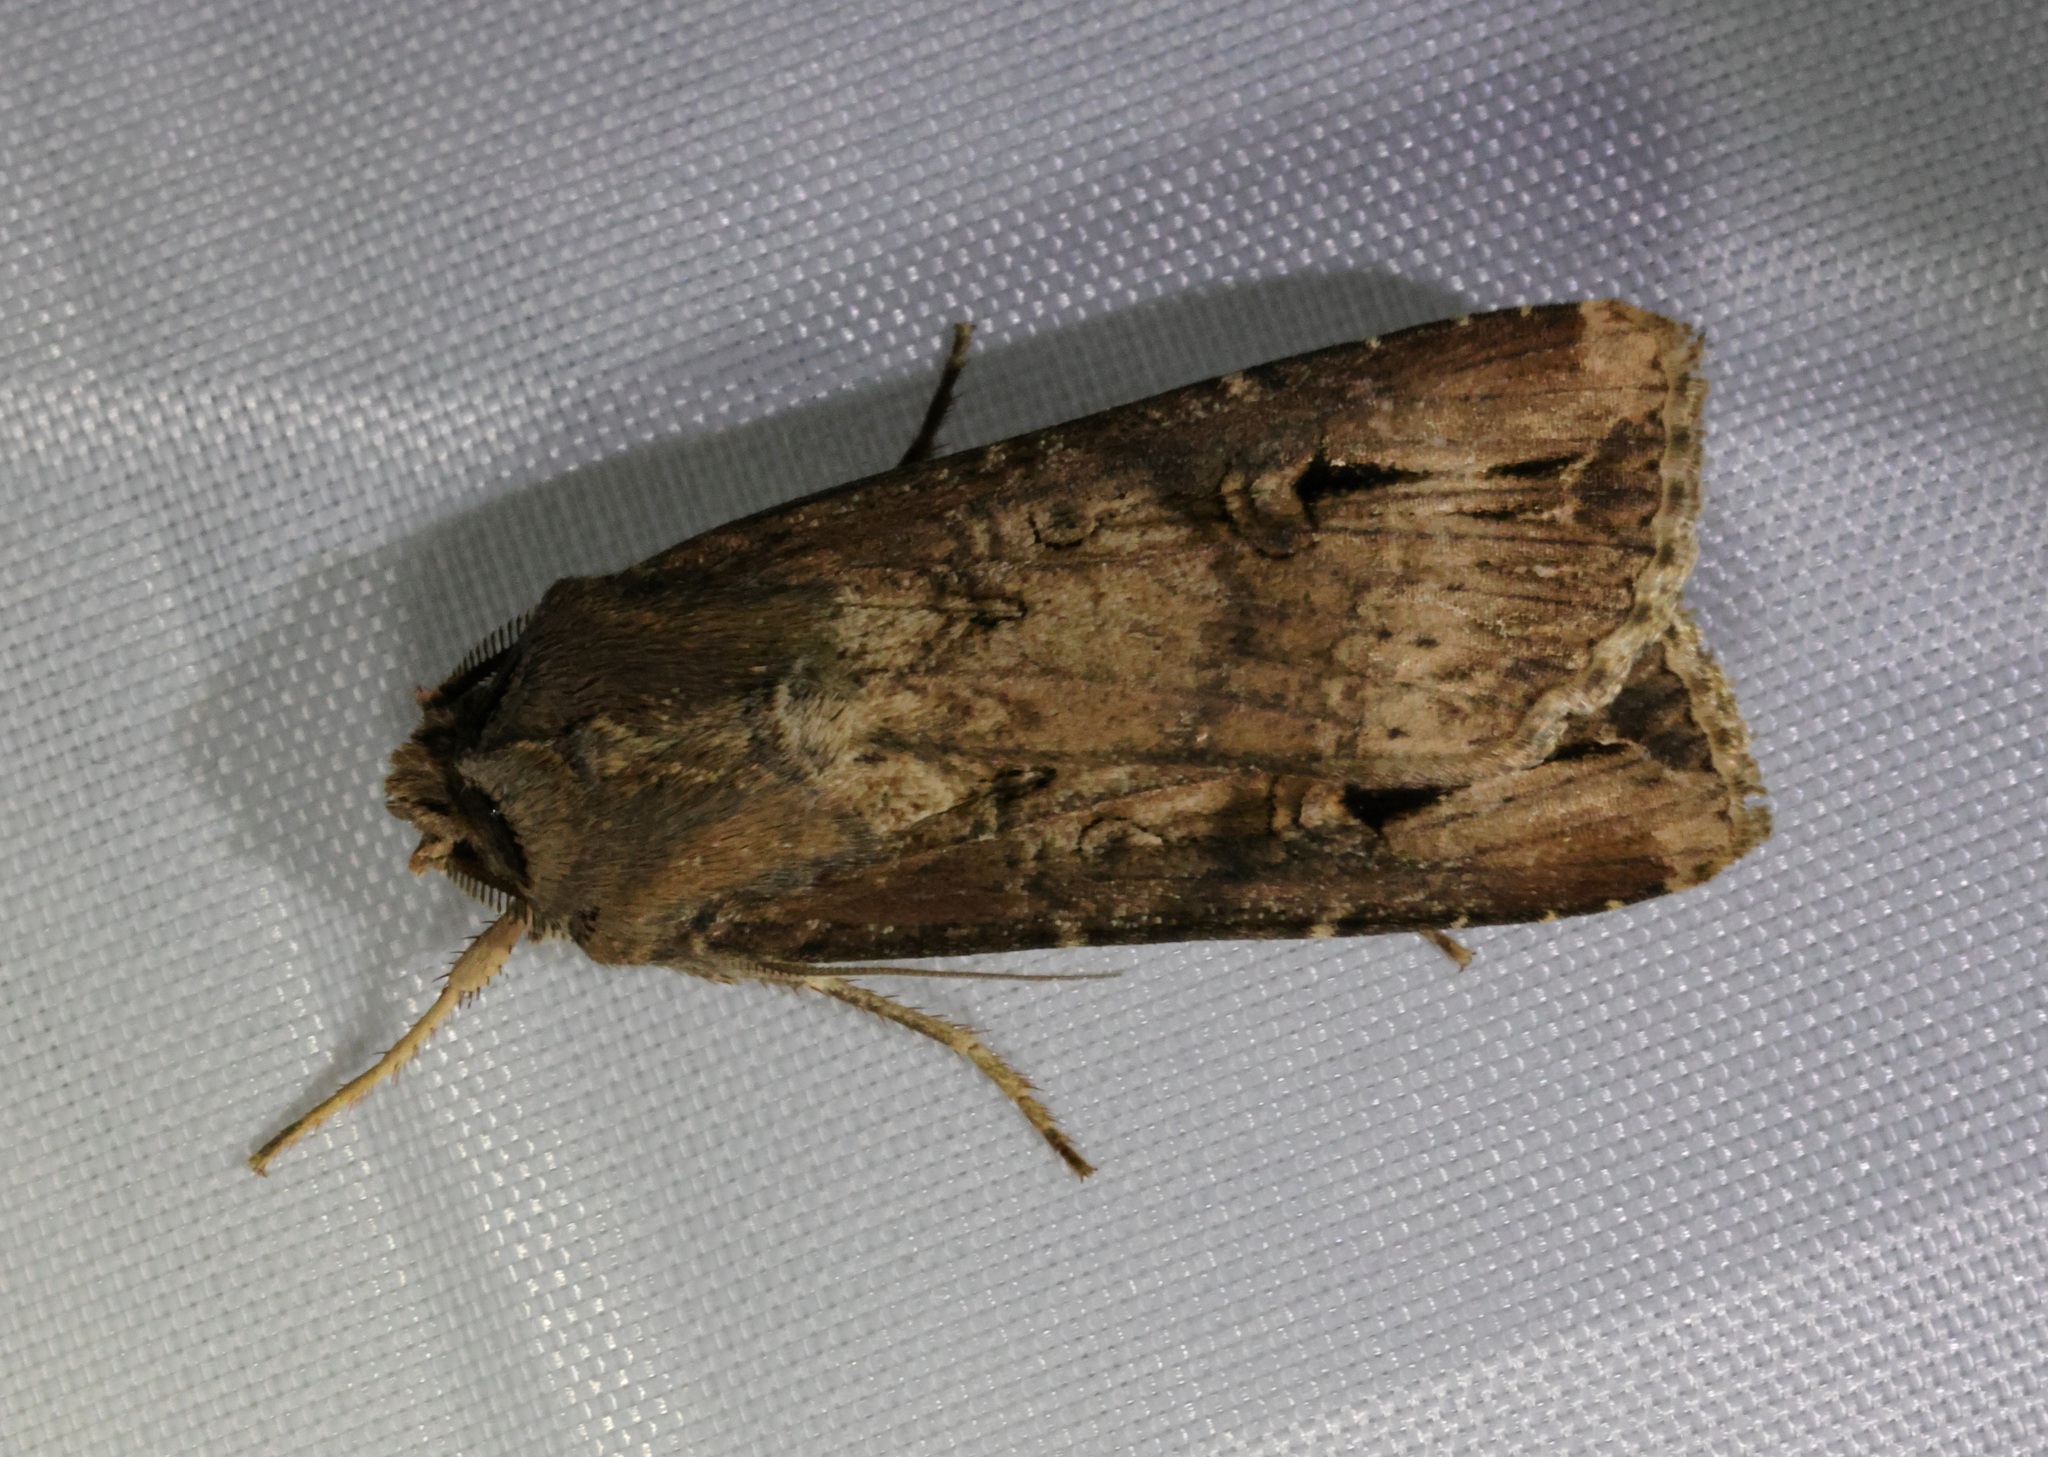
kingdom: Animalia
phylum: Arthropoda
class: Insecta
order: Lepidoptera
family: Noctuidae
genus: Agrotis
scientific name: Agrotis ipsilon
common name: Dark sword-grass
